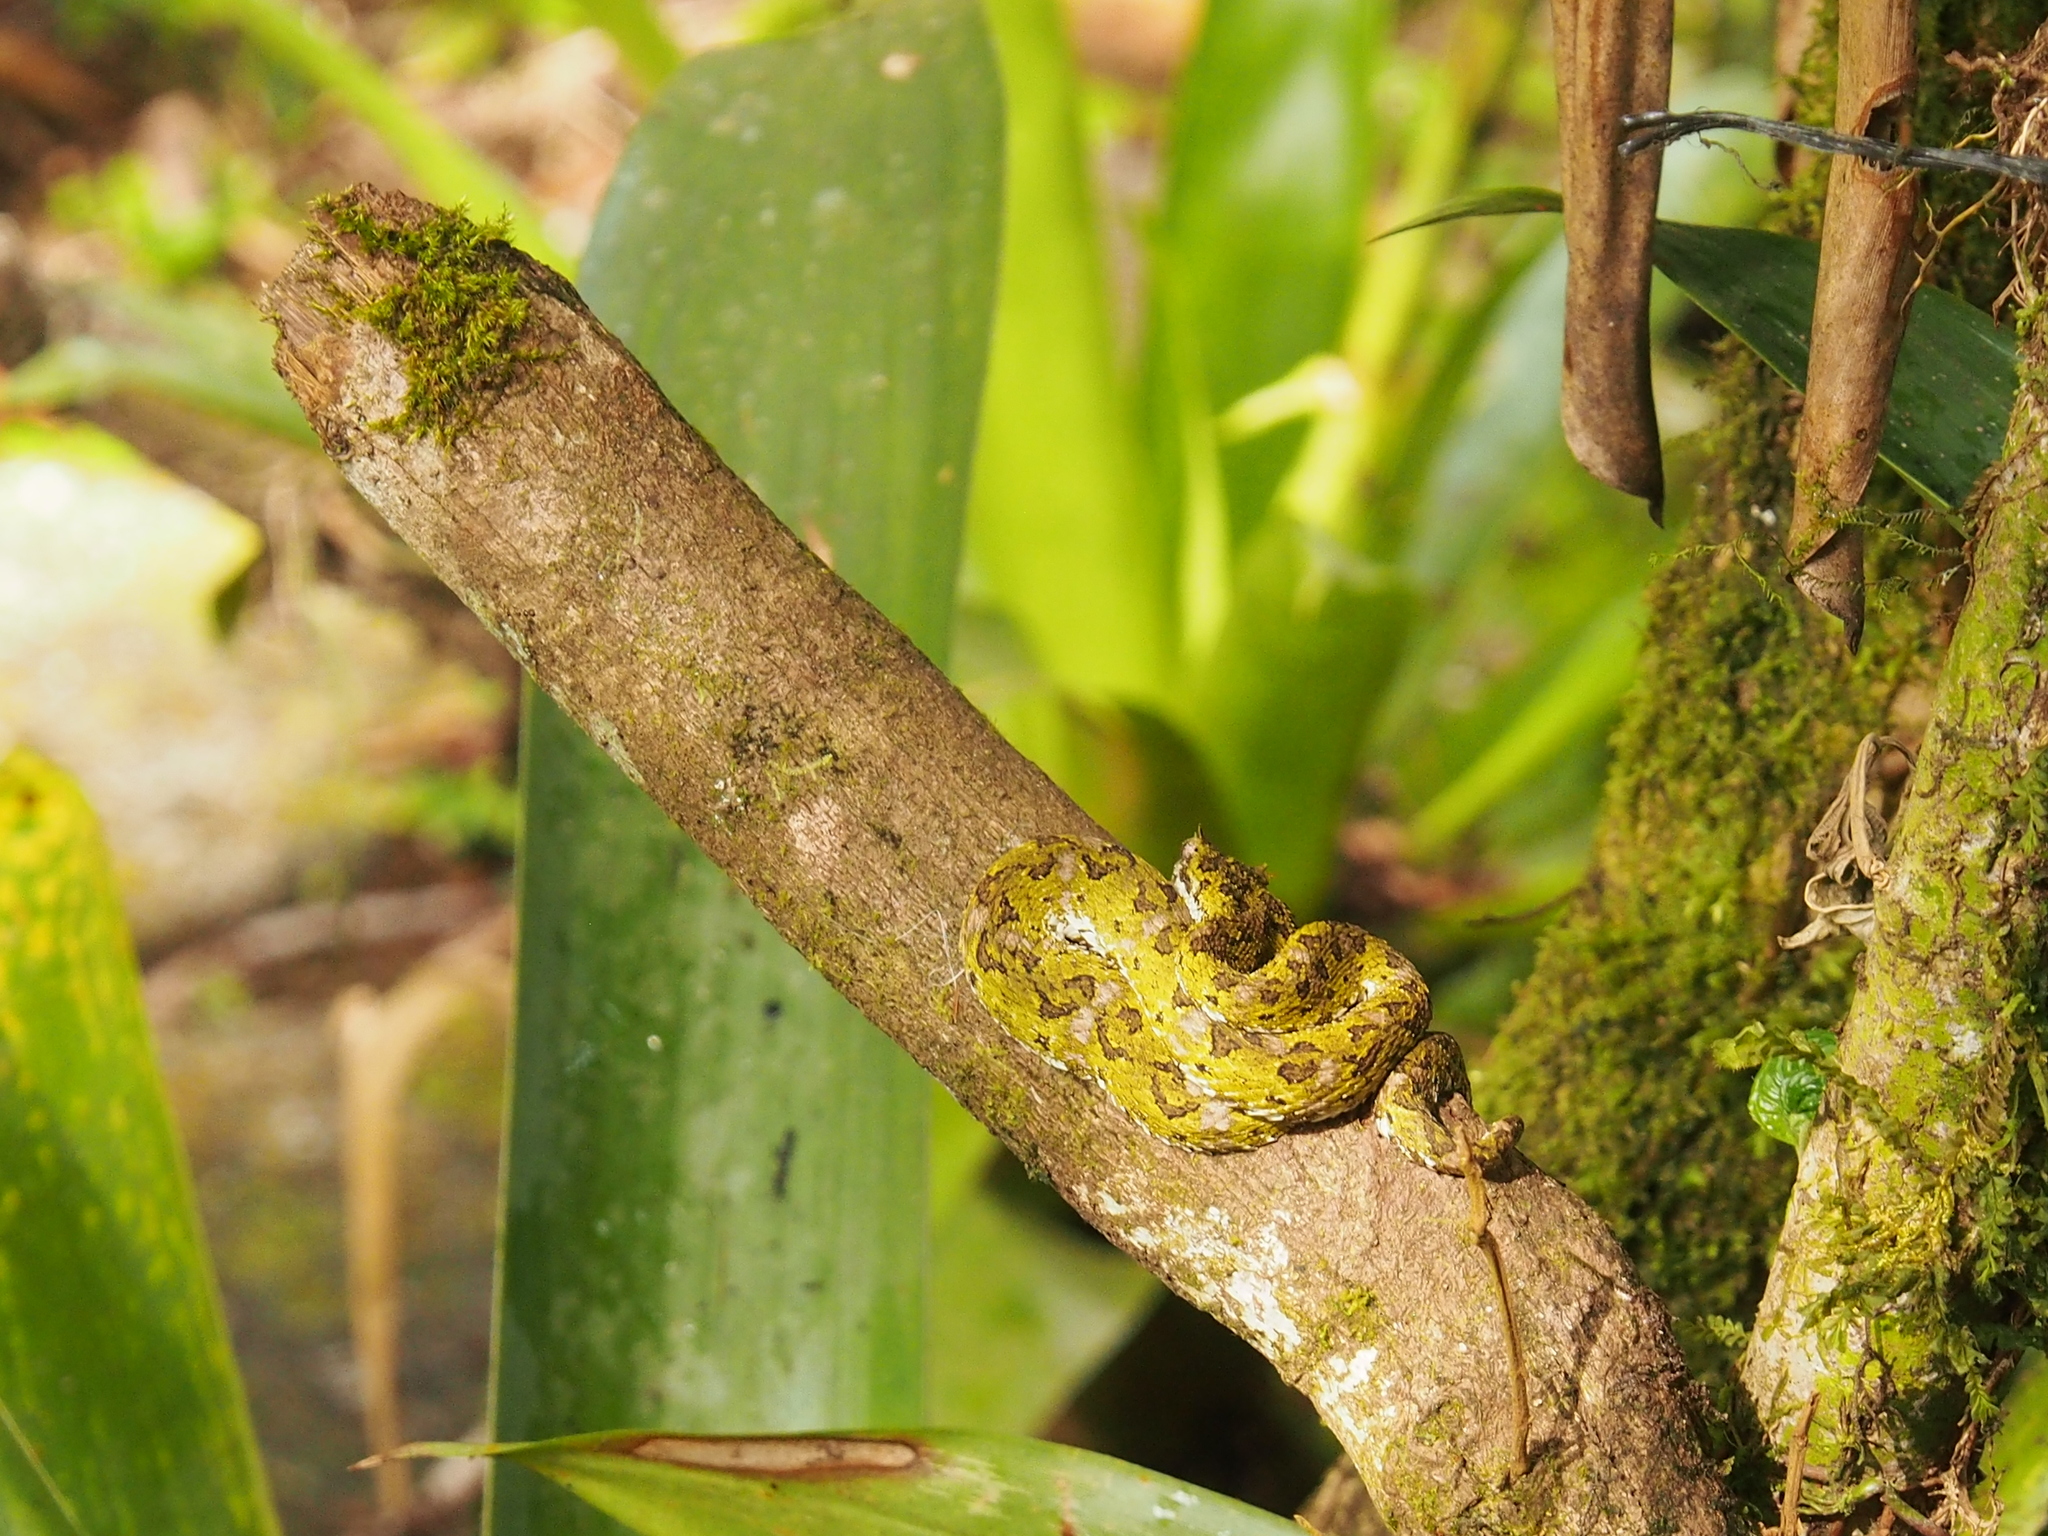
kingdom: Animalia
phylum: Chordata
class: Squamata
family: Viperidae
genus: Bothriechis
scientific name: Bothriechis schlegelii
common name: Eyelash viper
